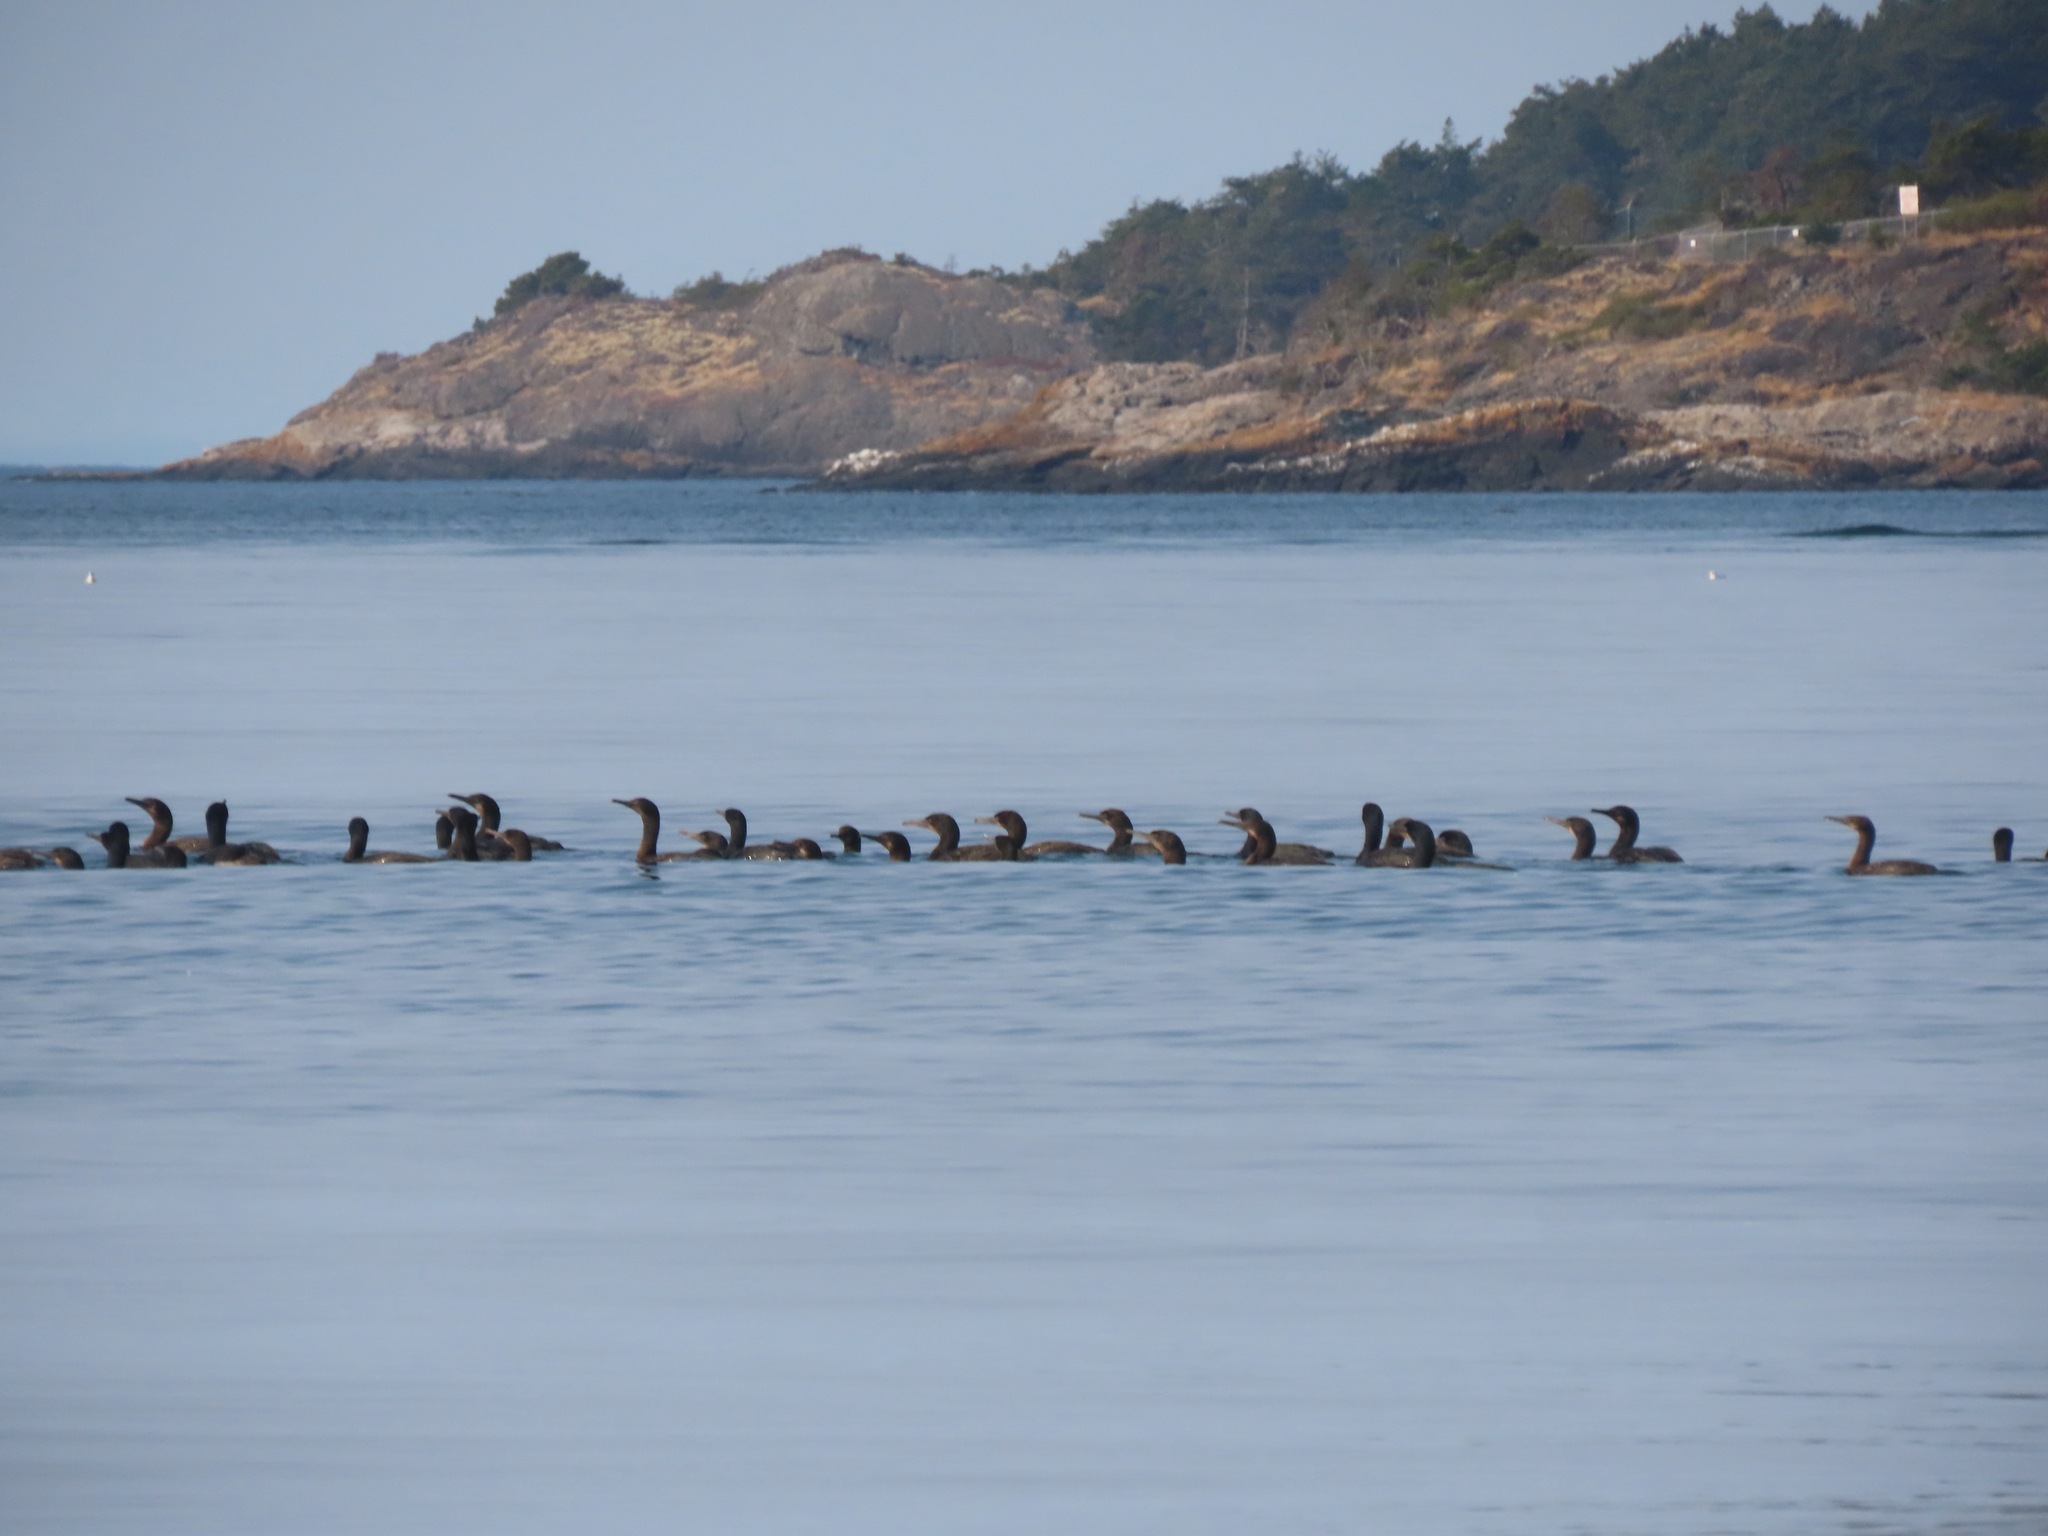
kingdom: Animalia
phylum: Chordata
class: Aves
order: Suliformes
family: Phalacrocoracidae
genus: Urile
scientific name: Urile penicillatus
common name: Brandt's cormorant
